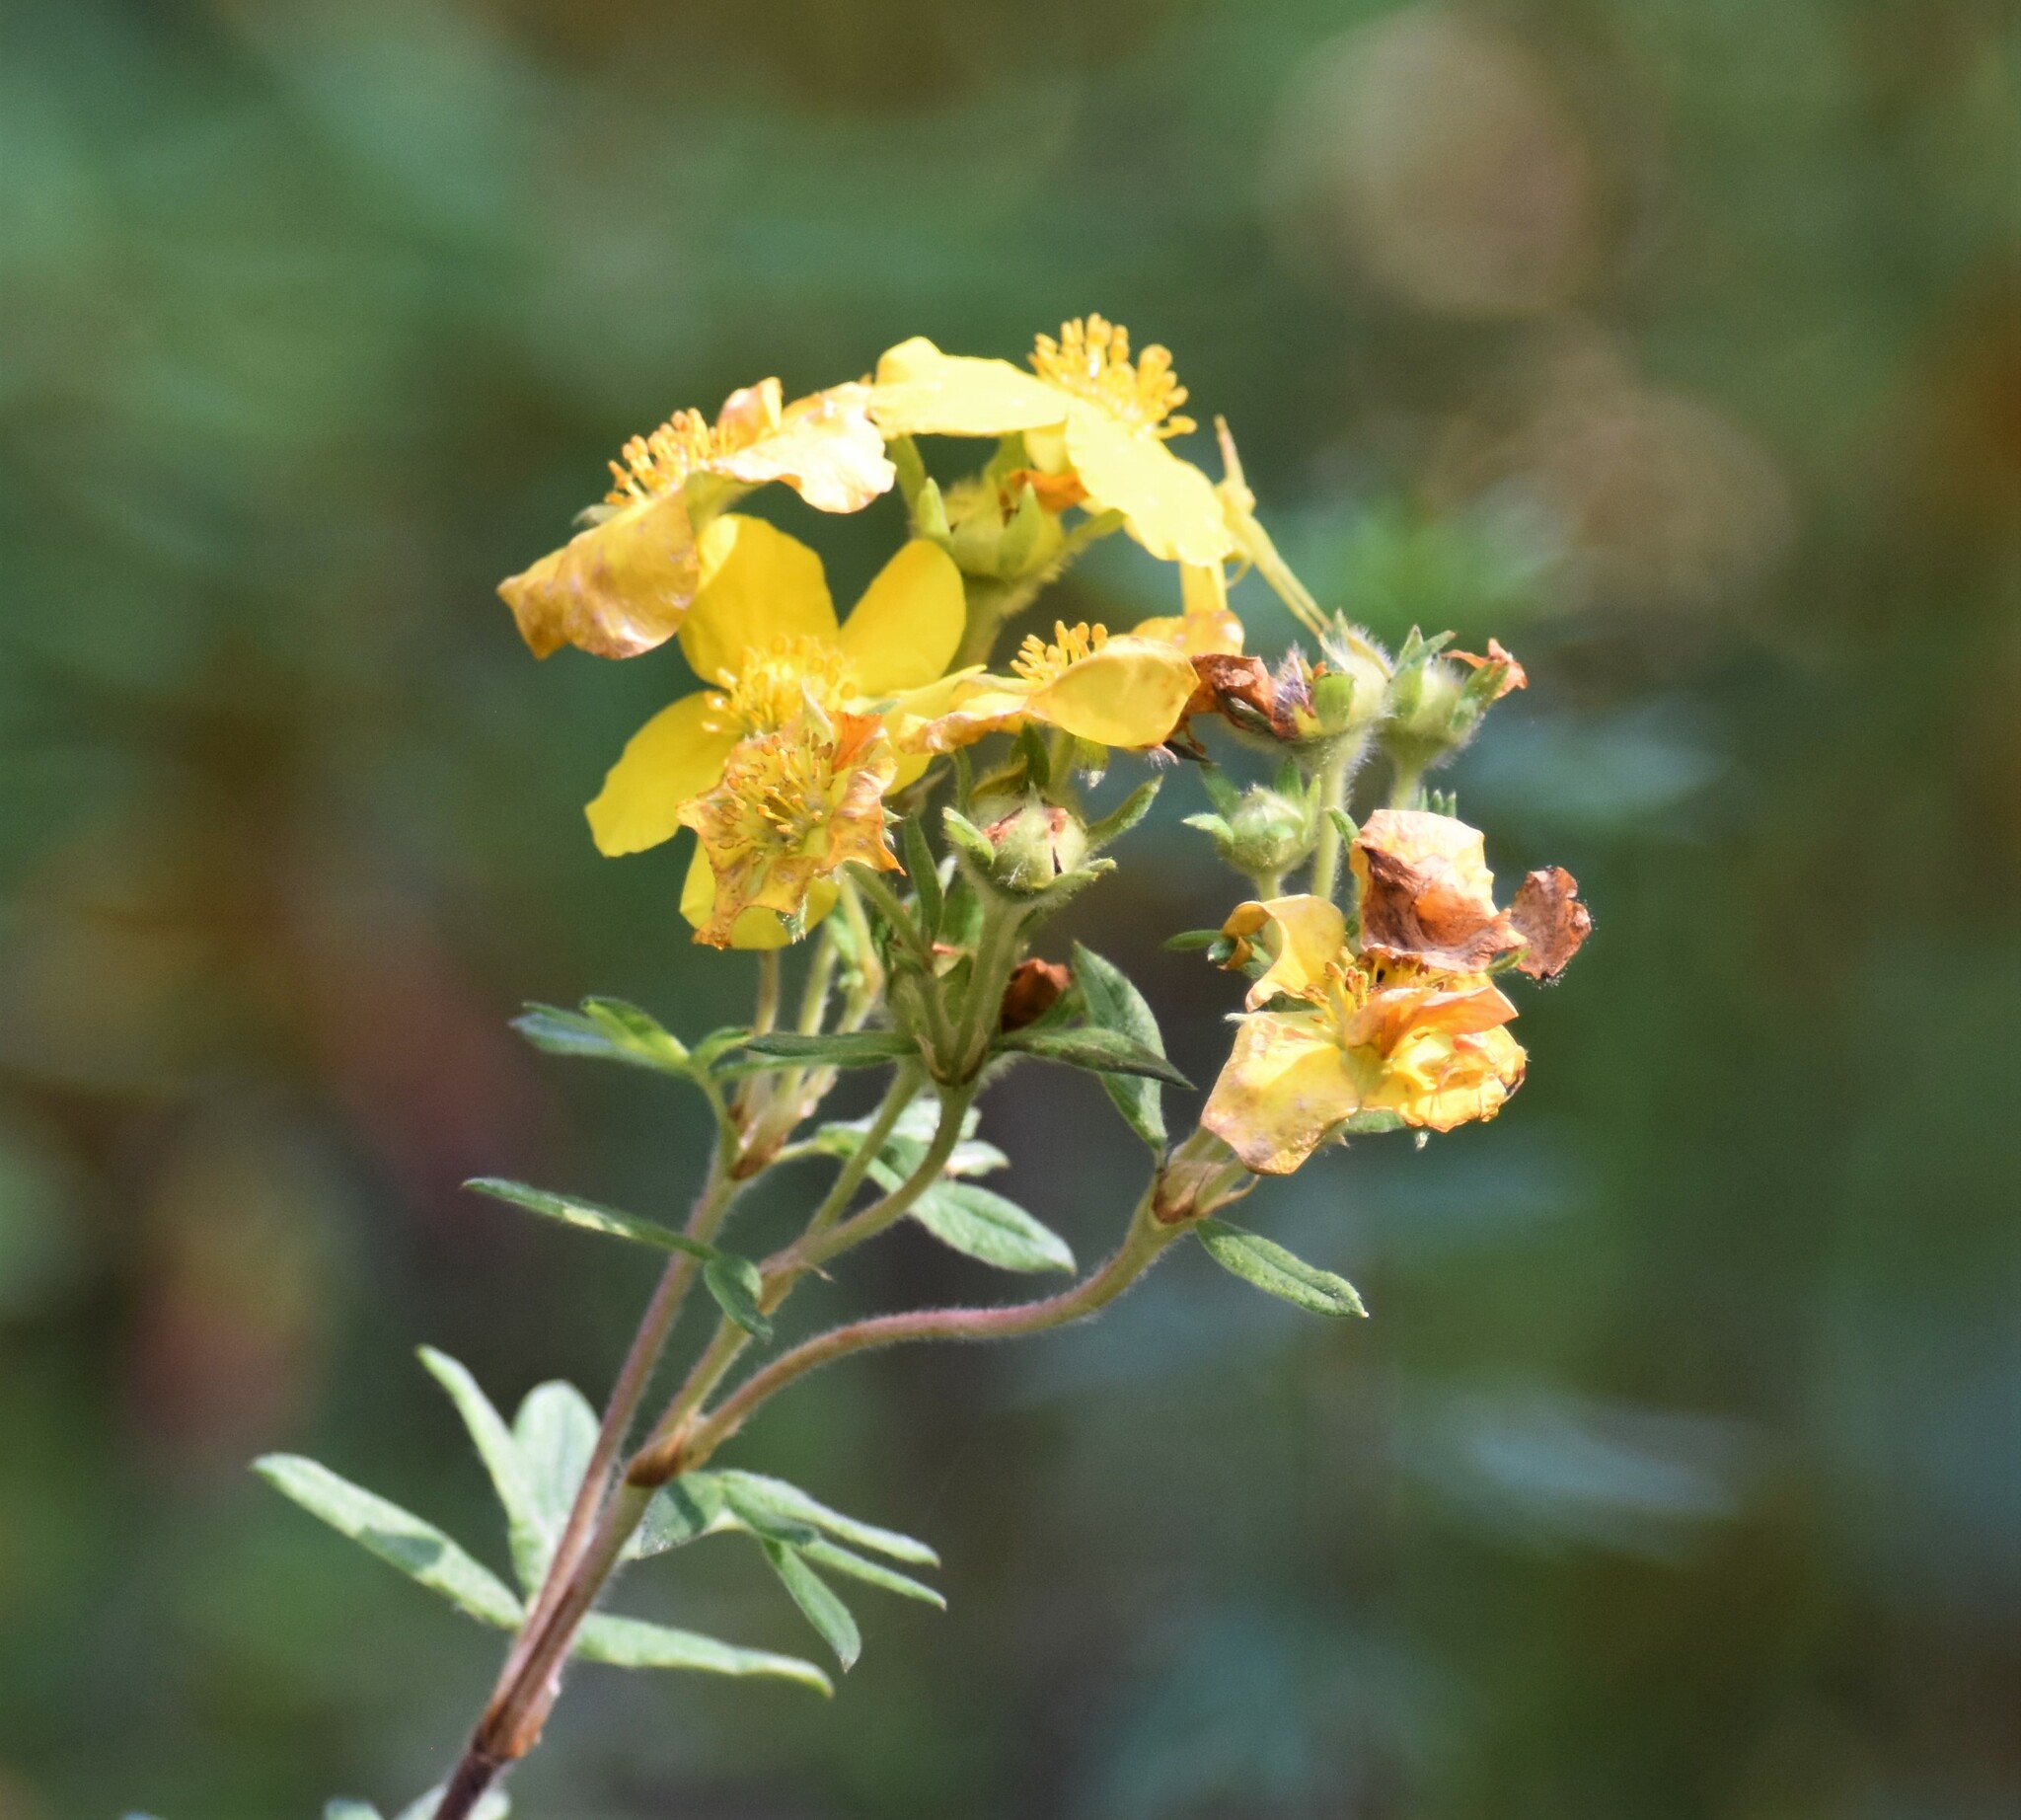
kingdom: Plantae
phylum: Tracheophyta
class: Magnoliopsida
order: Rosales
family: Rosaceae
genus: Dasiphora
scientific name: Dasiphora fruticosa
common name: Shrubby cinquefoil
